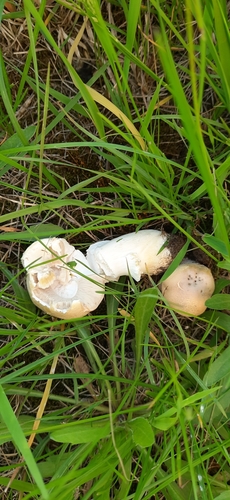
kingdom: Fungi
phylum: Basidiomycota
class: Agaricomycetes
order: Agaricales
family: Agaricaceae
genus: Agaricus
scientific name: Agaricus
